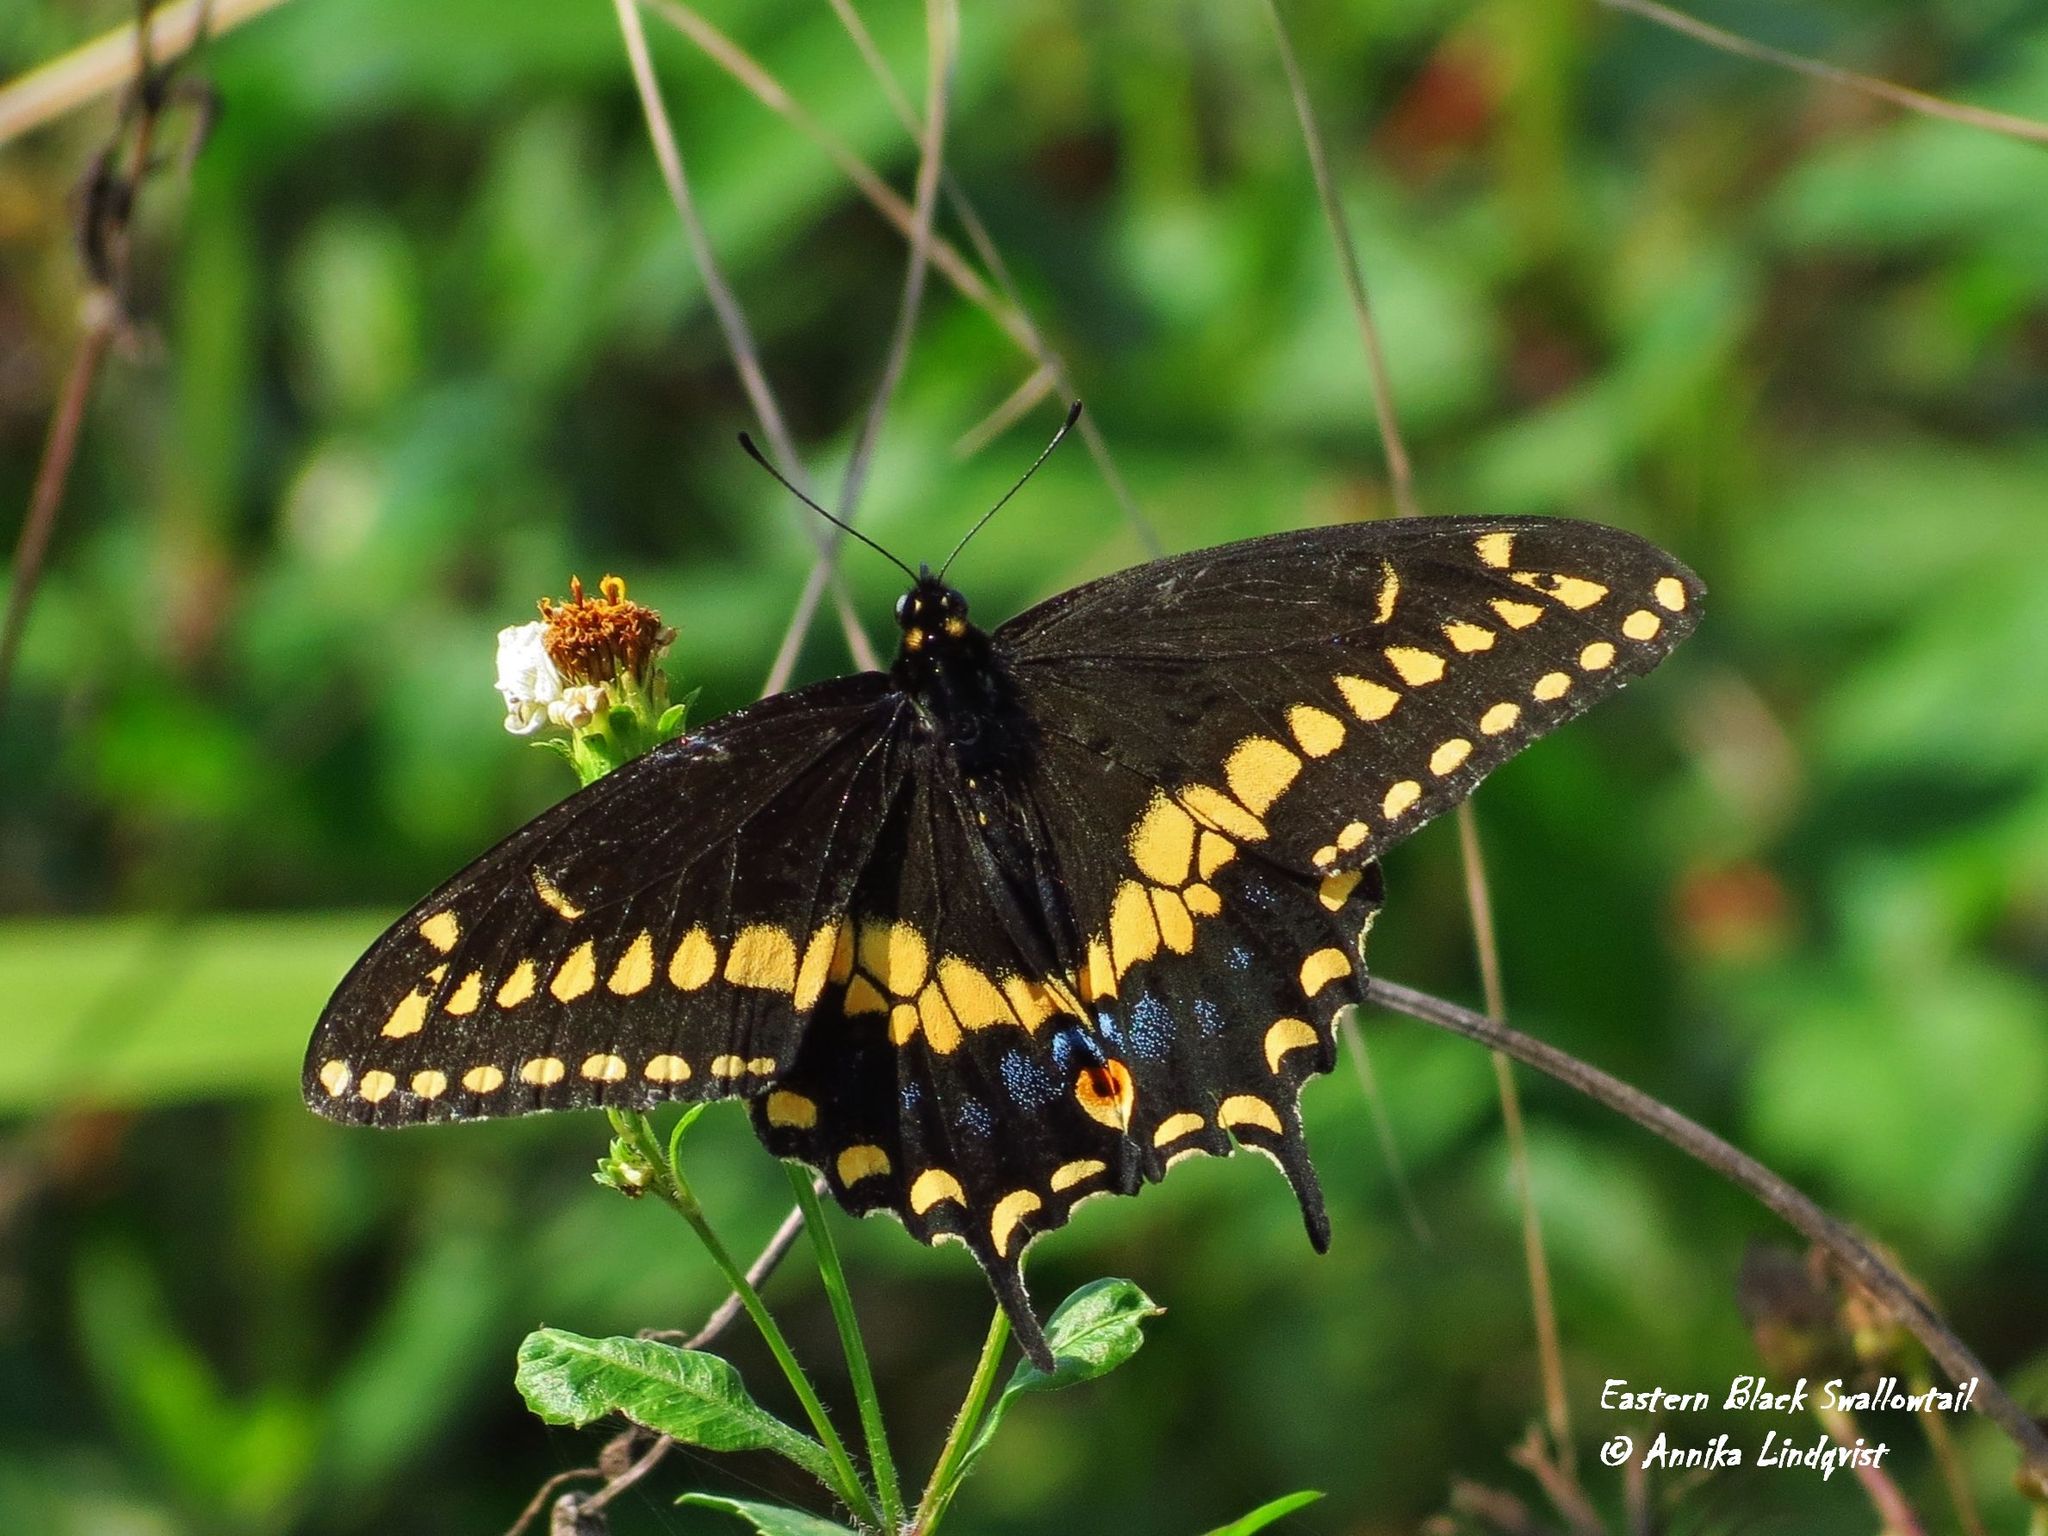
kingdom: Animalia
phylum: Arthropoda
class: Insecta
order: Lepidoptera
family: Papilionidae
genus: Papilio
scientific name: Papilio polyxenes
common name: Black swallowtail
